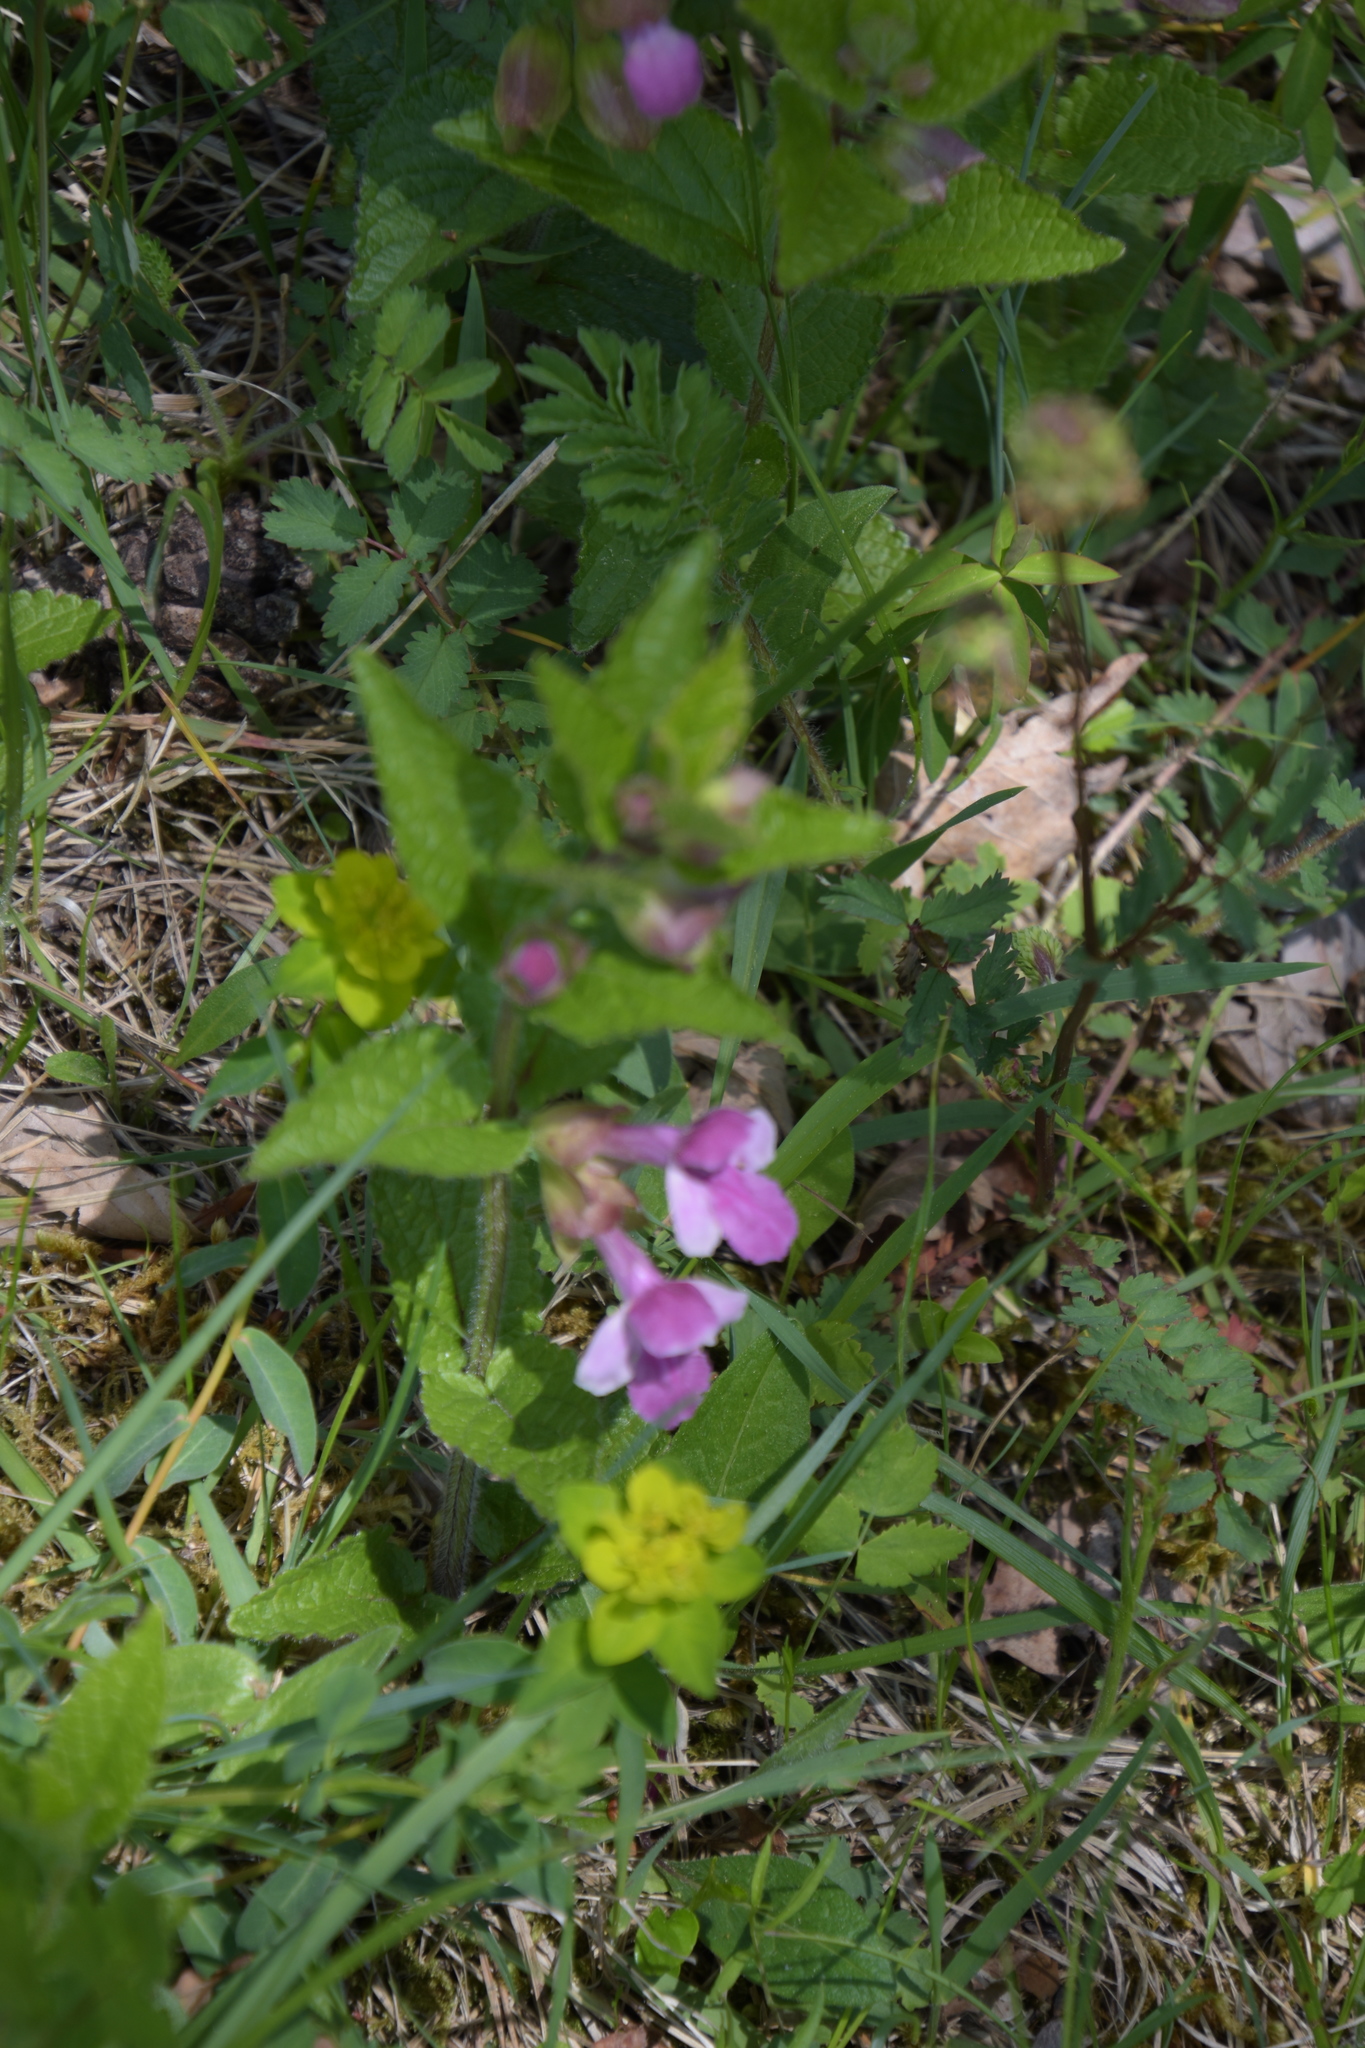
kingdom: Plantae
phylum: Tracheophyta
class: Magnoliopsida
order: Lamiales
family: Lamiaceae
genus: Melittis
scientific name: Melittis melissophyllum
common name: Bastard balm
